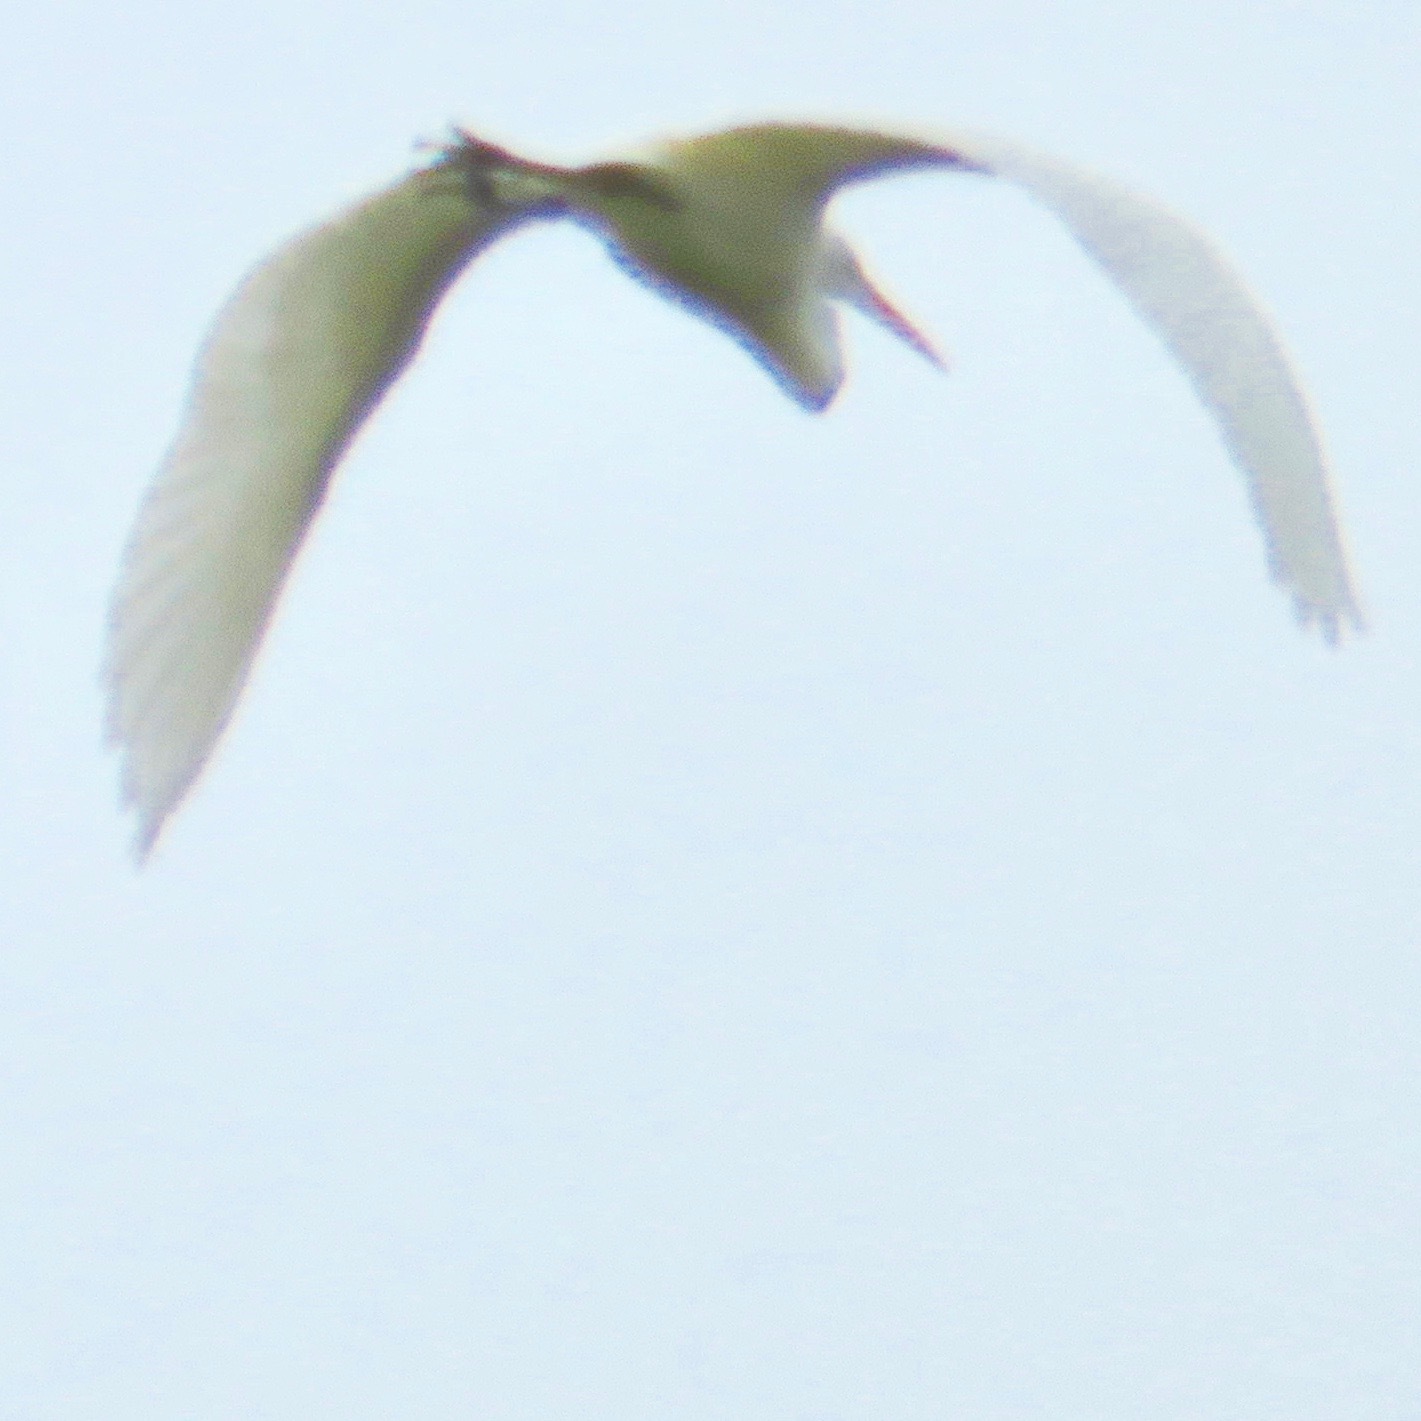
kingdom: Animalia
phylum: Chordata
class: Aves
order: Pelecaniformes
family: Ardeidae
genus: Ardea
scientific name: Ardea alba
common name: Great egret
